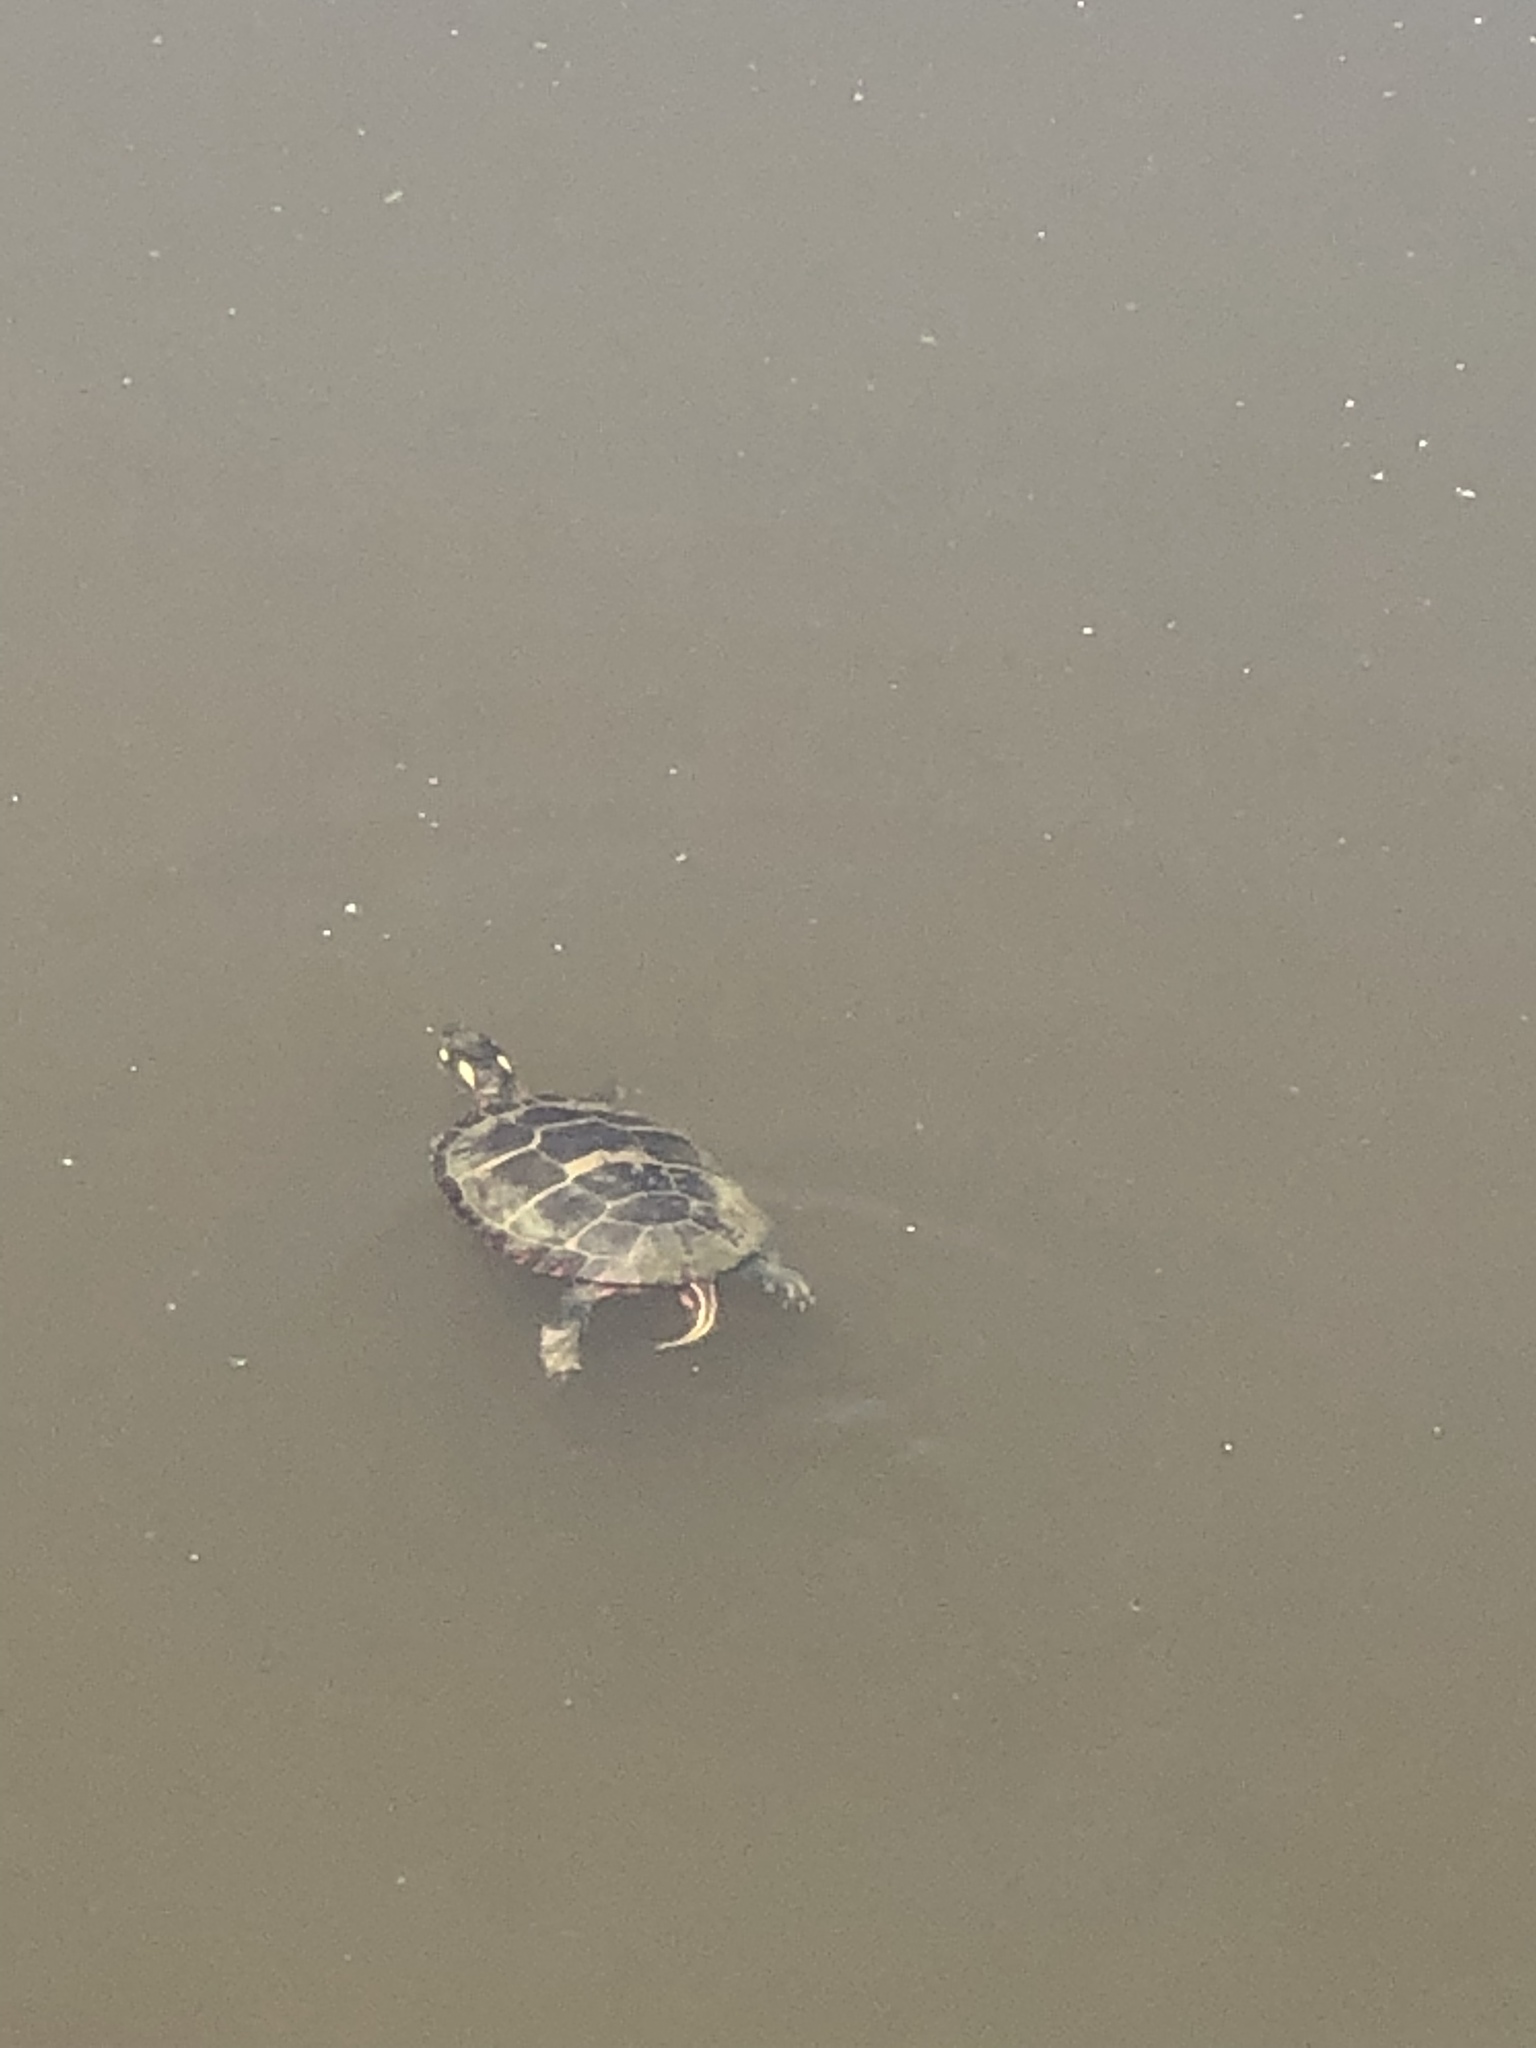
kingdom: Animalia
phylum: Chordata
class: Testudines
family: Emydidae
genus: Chrysemys
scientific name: Chrysemys picta
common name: Painted turtle
